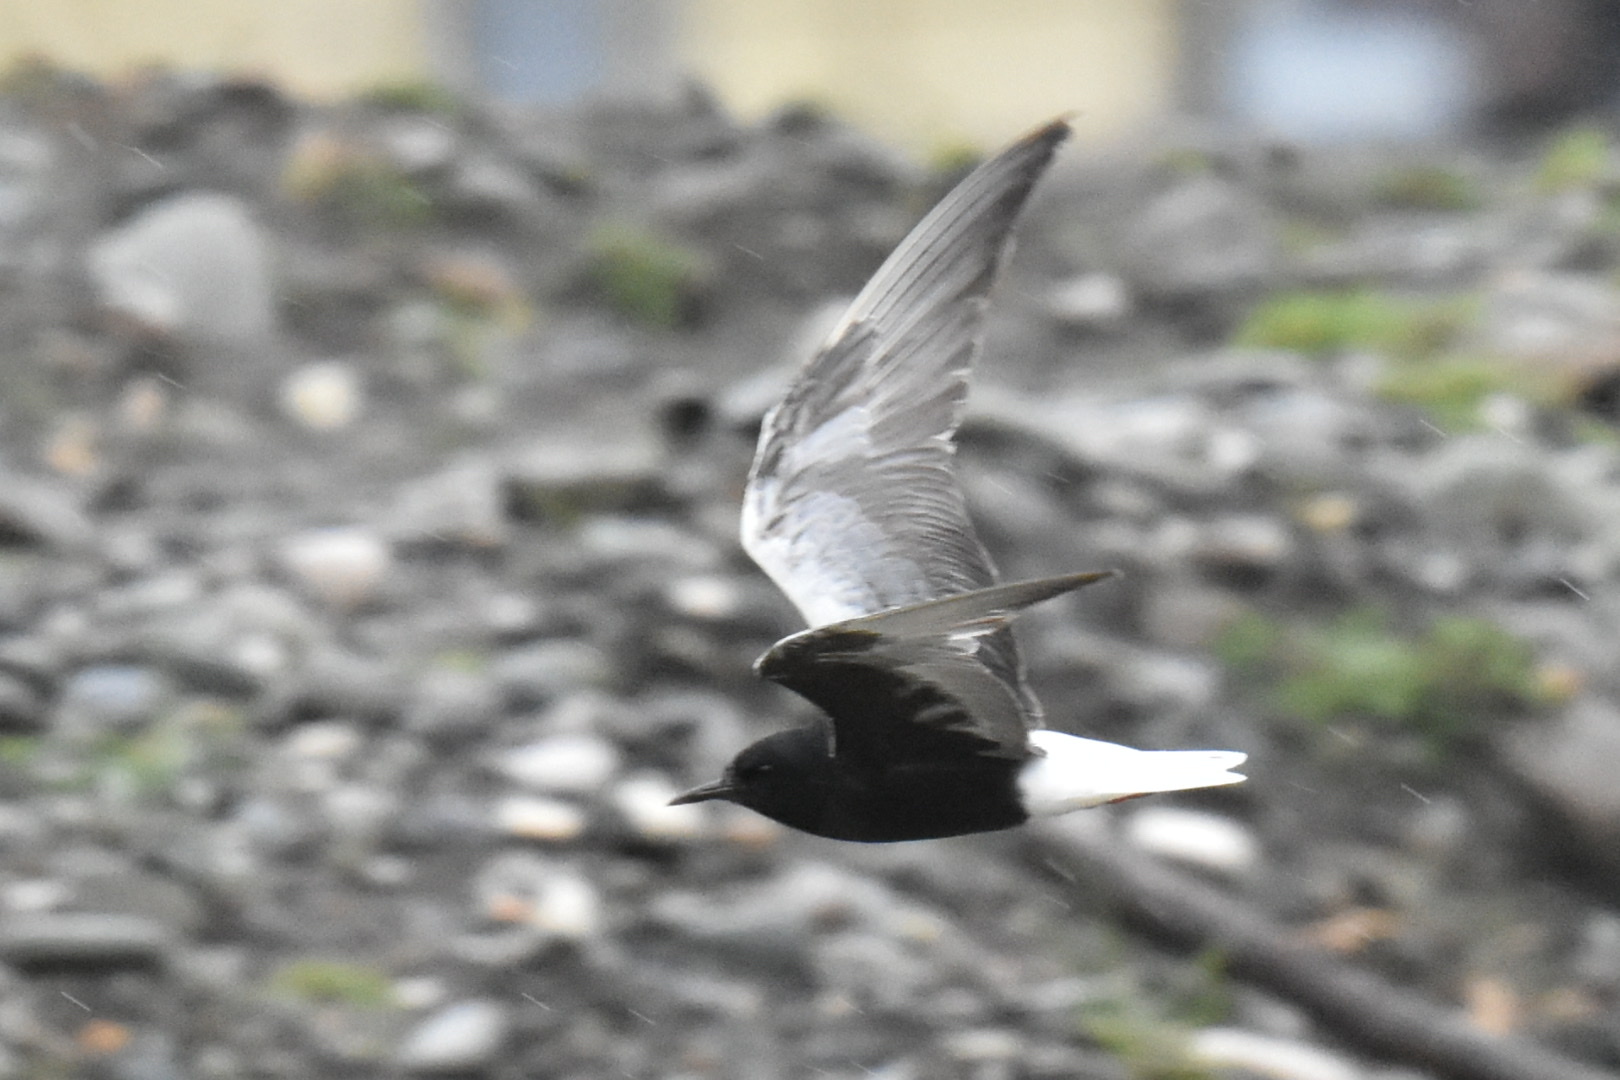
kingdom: Animalia
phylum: Chordata
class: Aves
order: Charadriiformes
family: Laridae
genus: Chlidonias
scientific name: Chlidonias leucopterus
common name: White-winged tern
